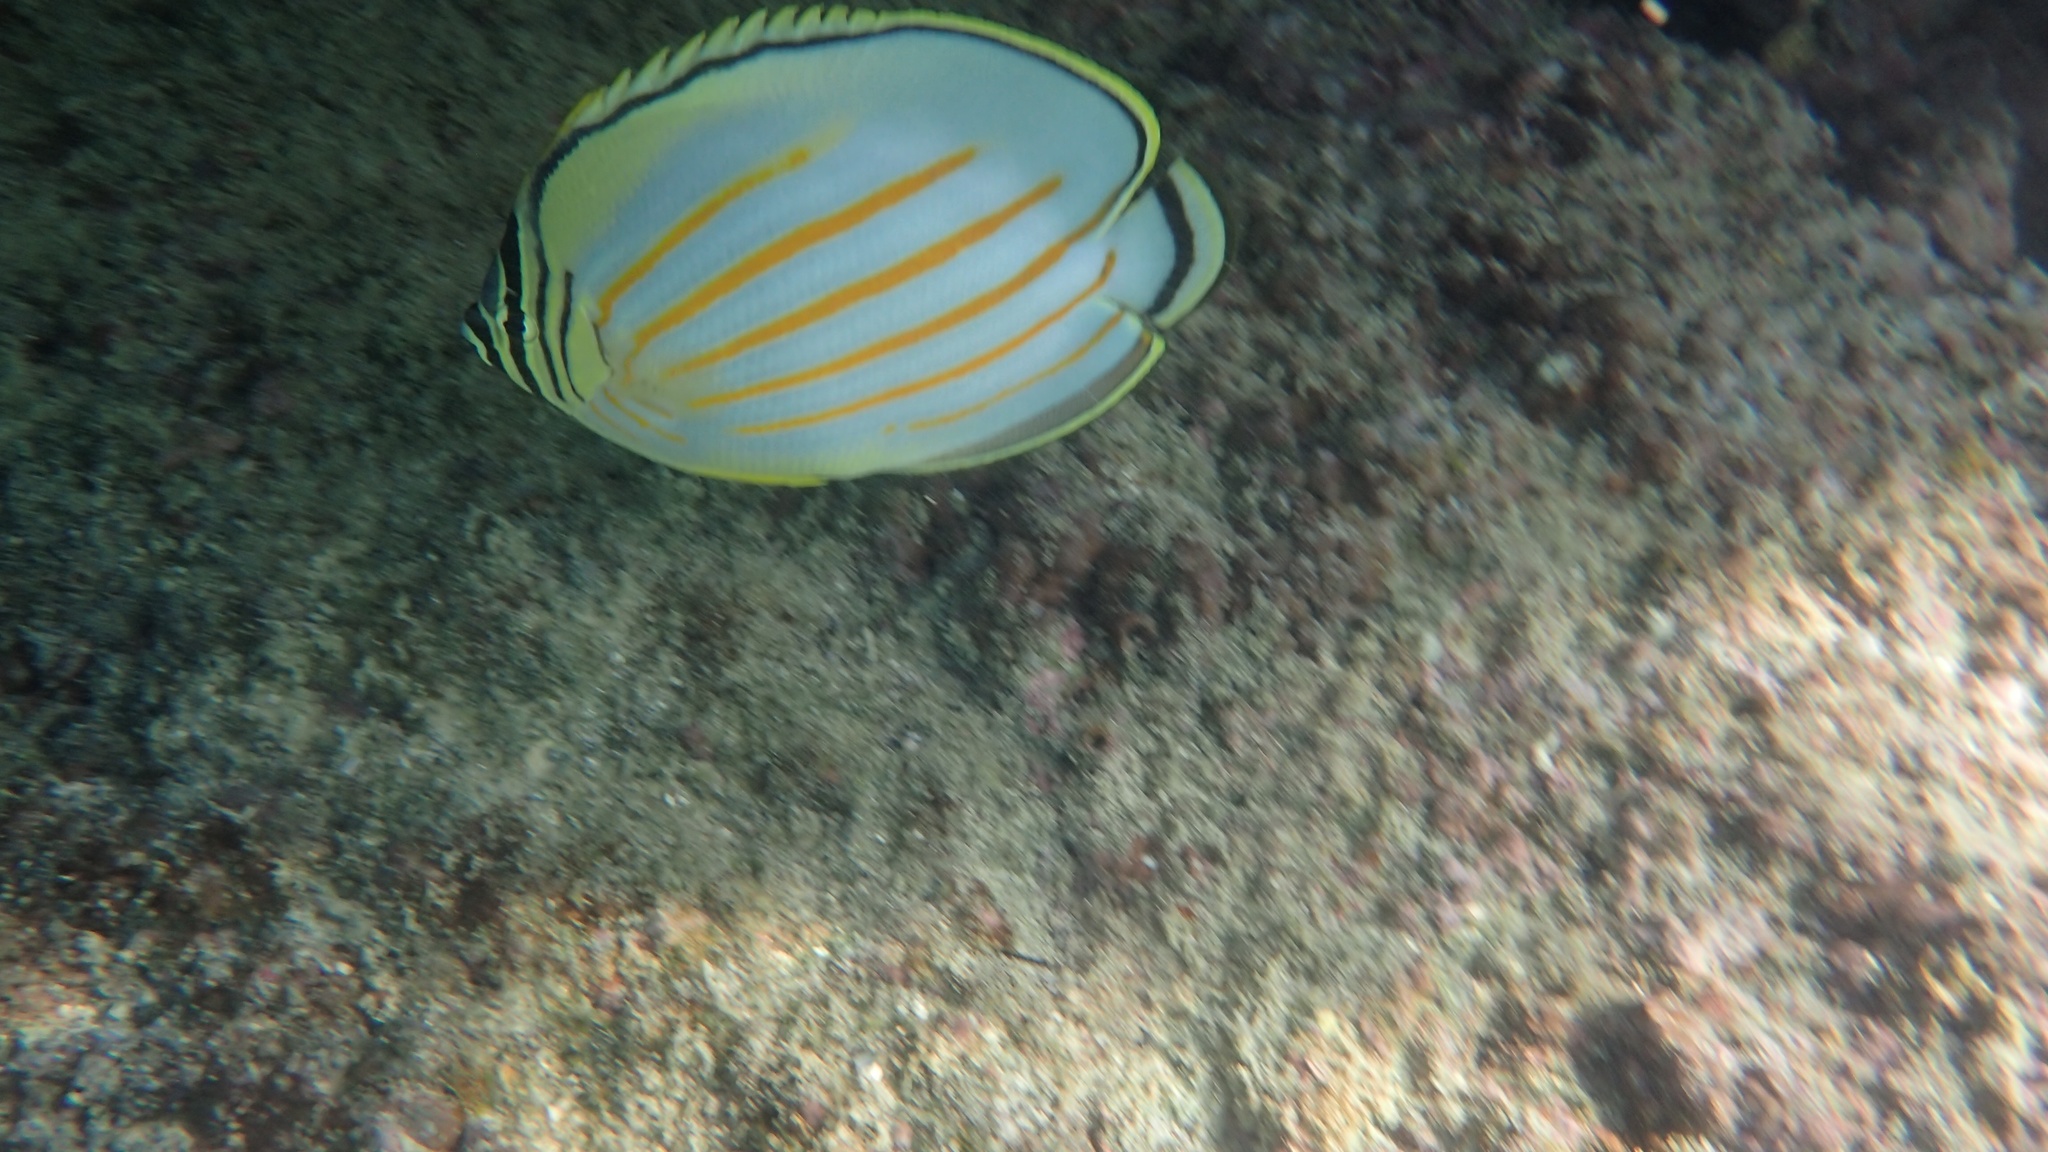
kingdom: Animalia
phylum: Chordata
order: Perciformes
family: Chaetodontidae
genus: Chaetodon
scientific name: Chaetodon ornatissimus
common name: Ornate butterflyfish
